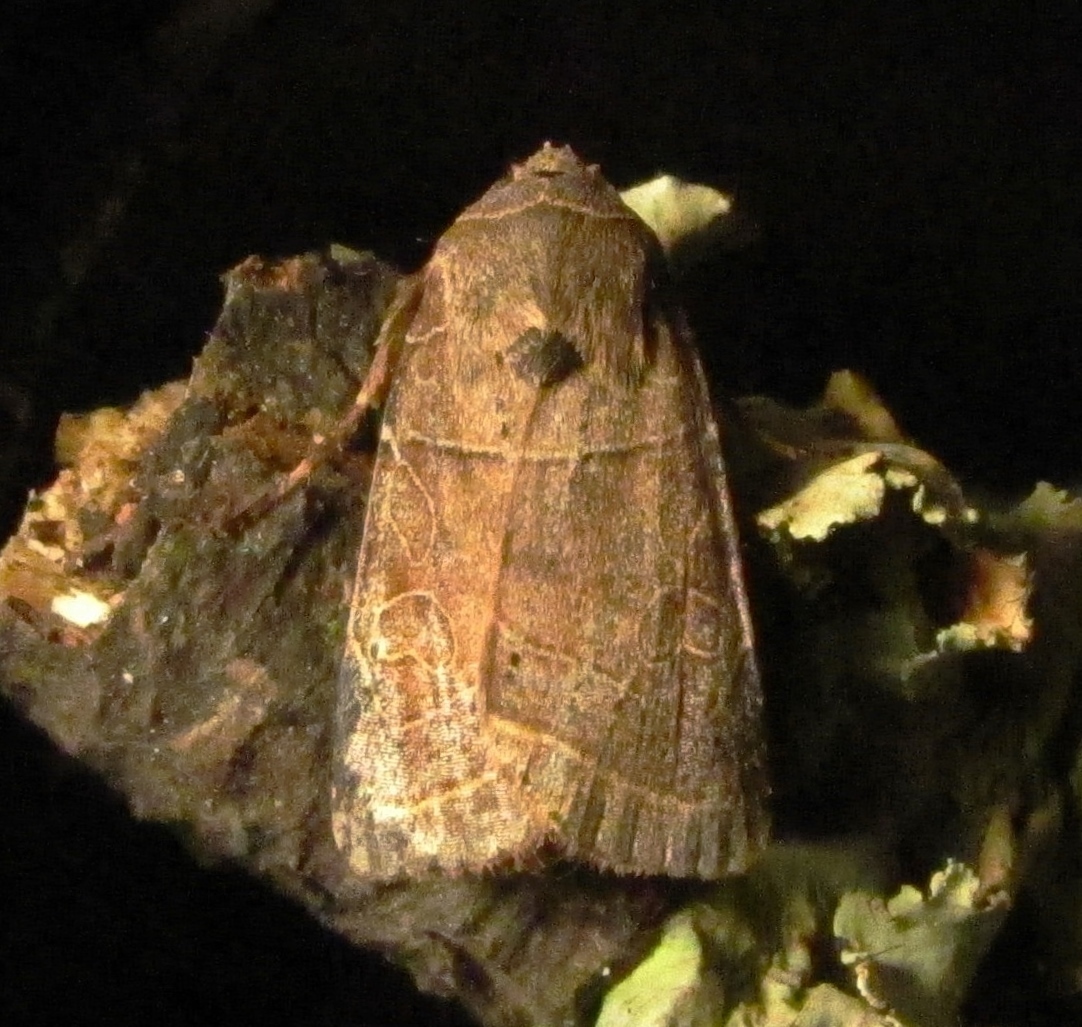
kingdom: Animalia
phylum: Arthropoda
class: Insecta
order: Lepidoptera
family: Noctuidae
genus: Orthodes
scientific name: Orthodes majuscula
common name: Rustic quaker
